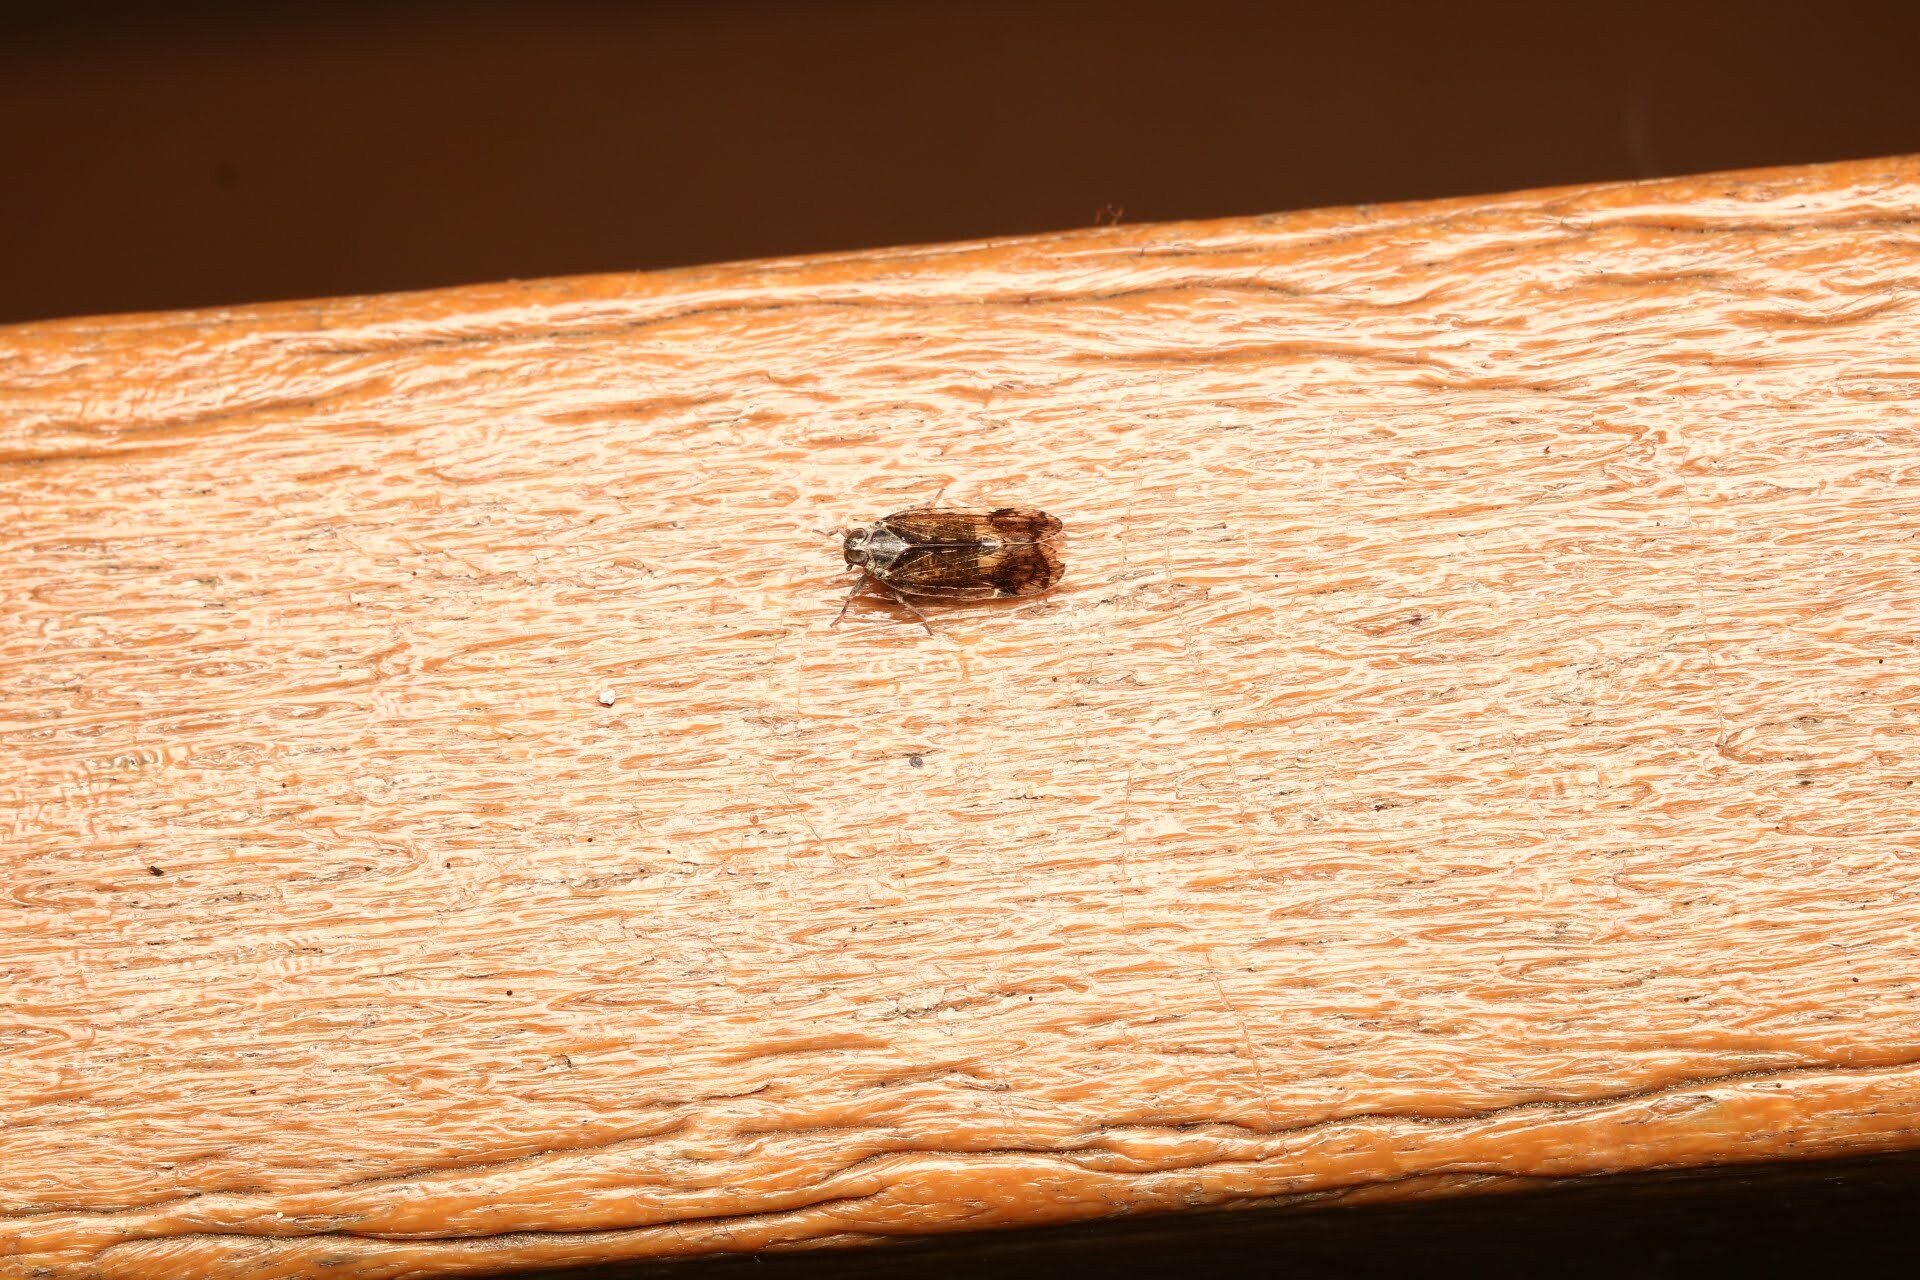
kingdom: Animalia
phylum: Arthropoda
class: Insecta
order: Hemiptera
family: Cixiidae
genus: Melanoliarus
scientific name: Melanoliarus placitus
